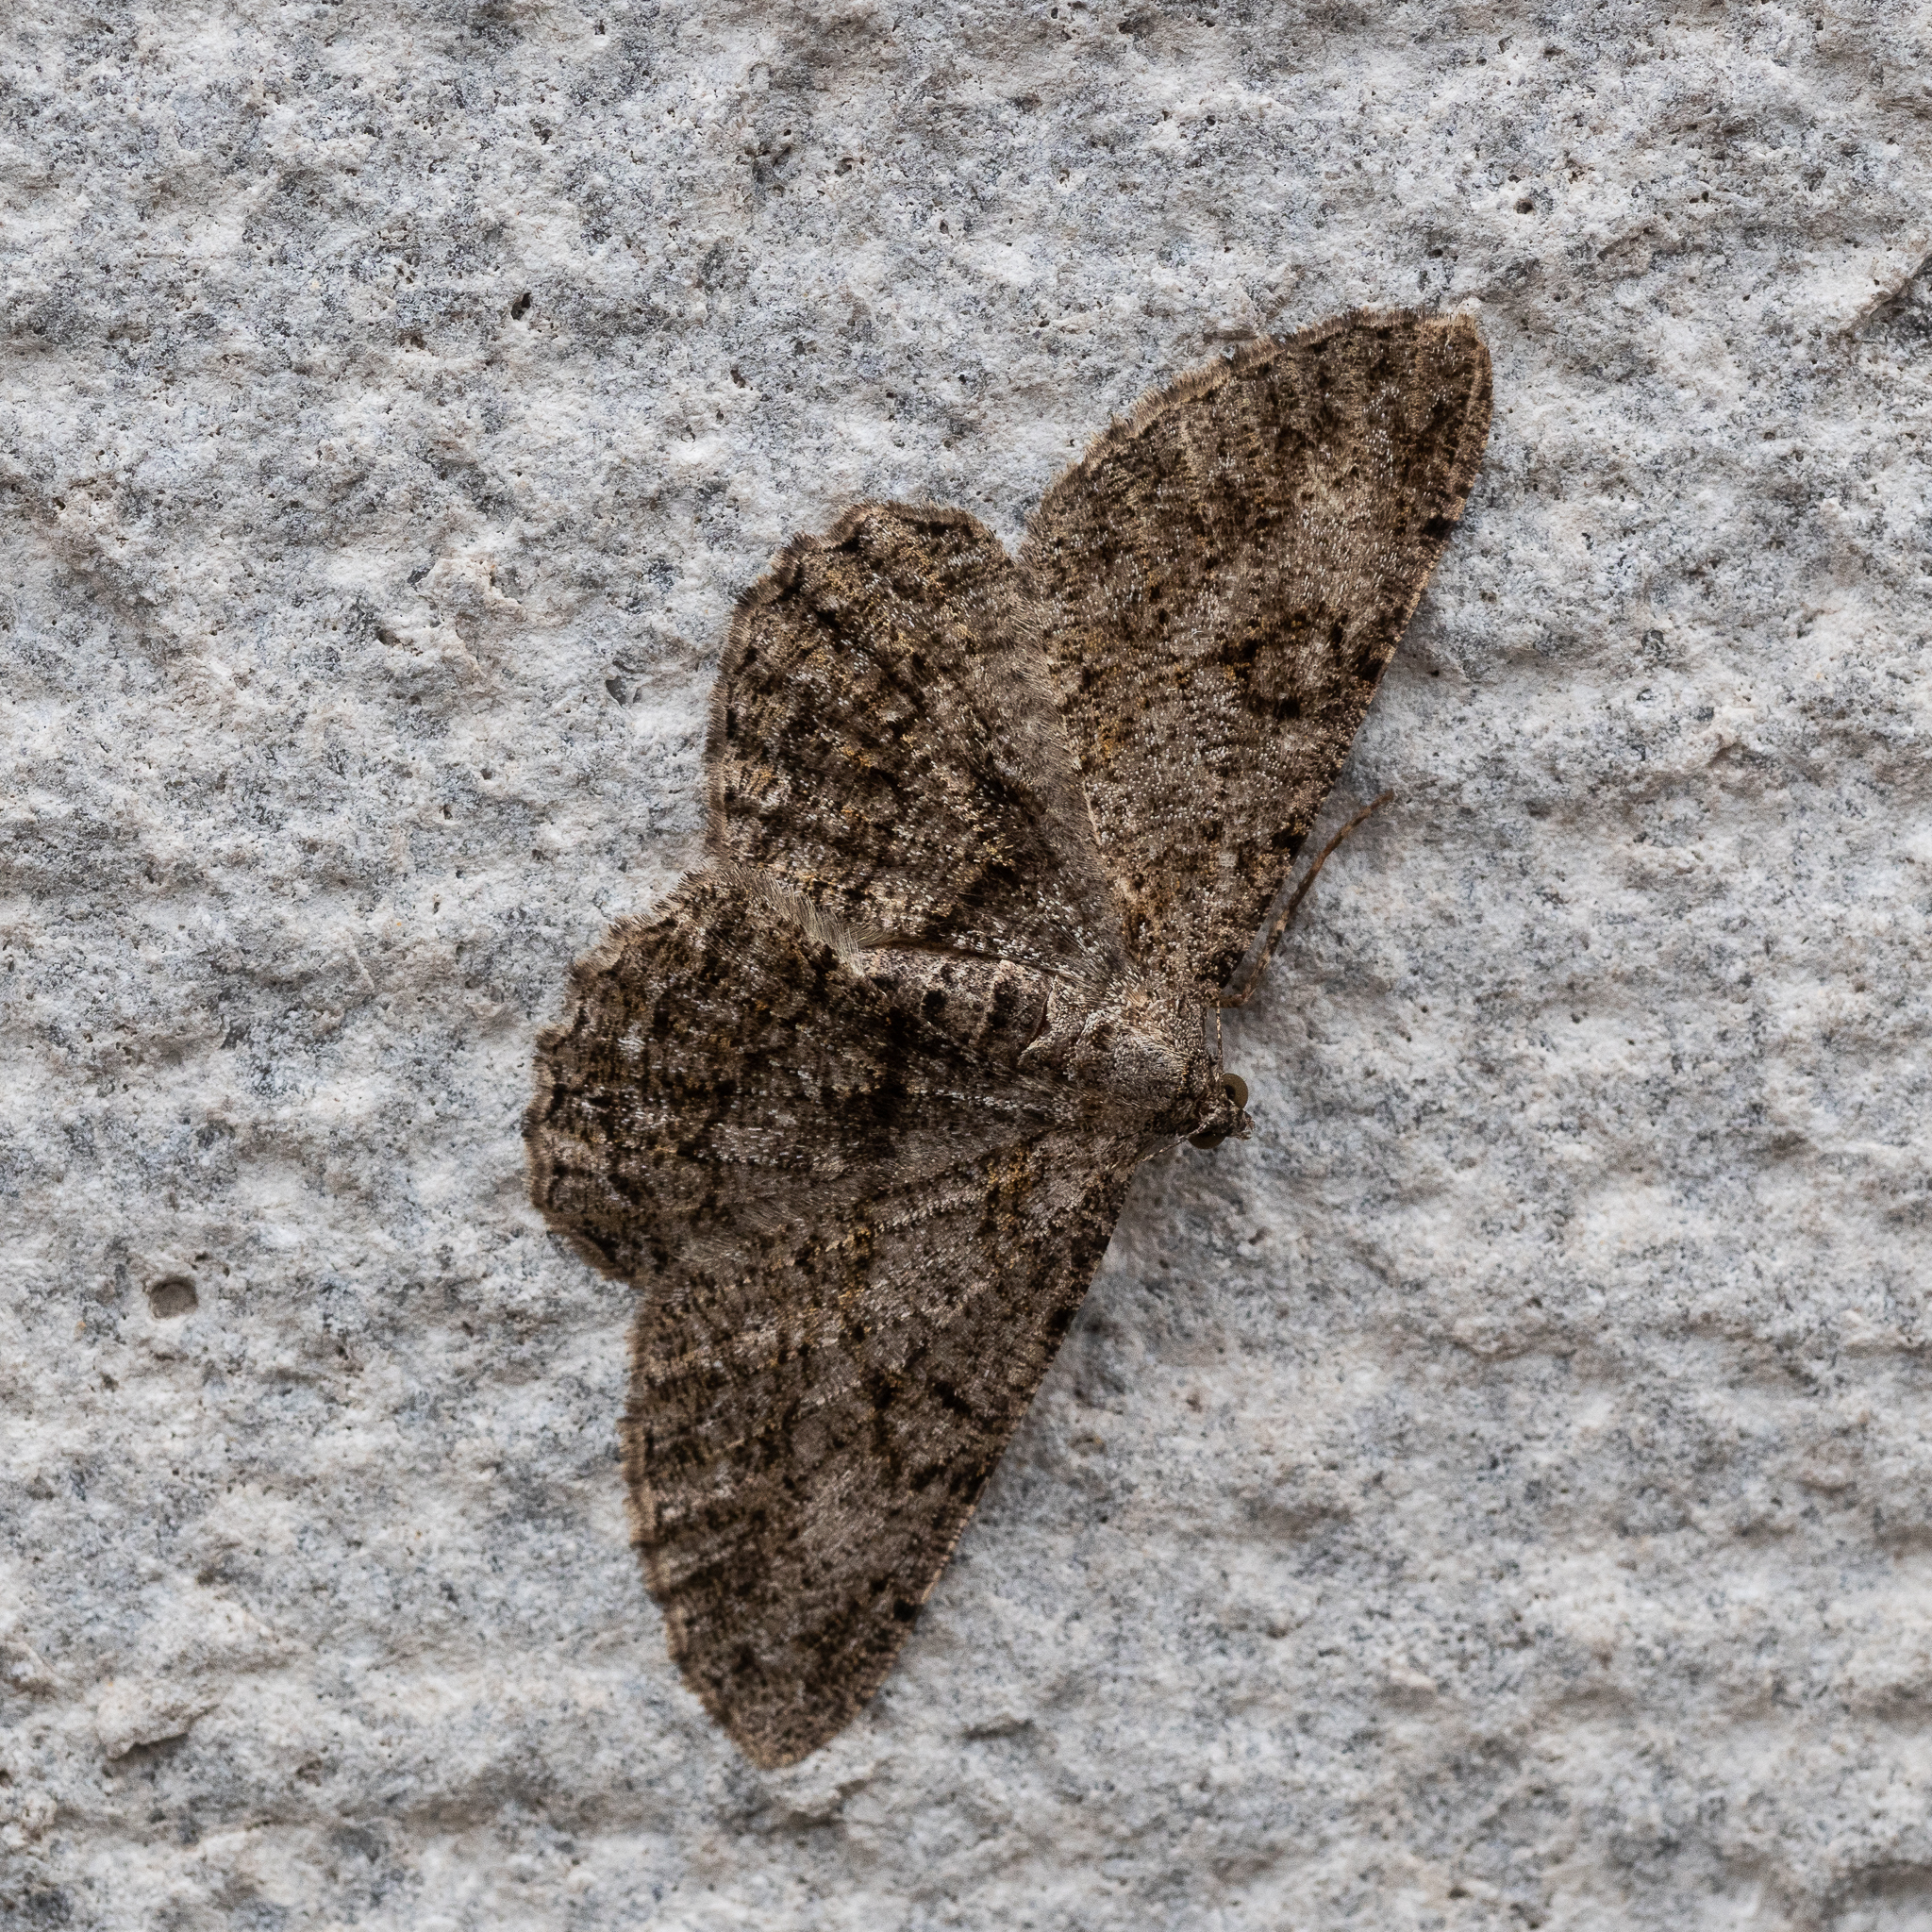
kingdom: Animalia
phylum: Arthropoda
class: Insecta
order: Lepidoptera
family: Geometridae
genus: Peribatodes
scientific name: Peribatodes rhomboidaria
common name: Willow beauty
